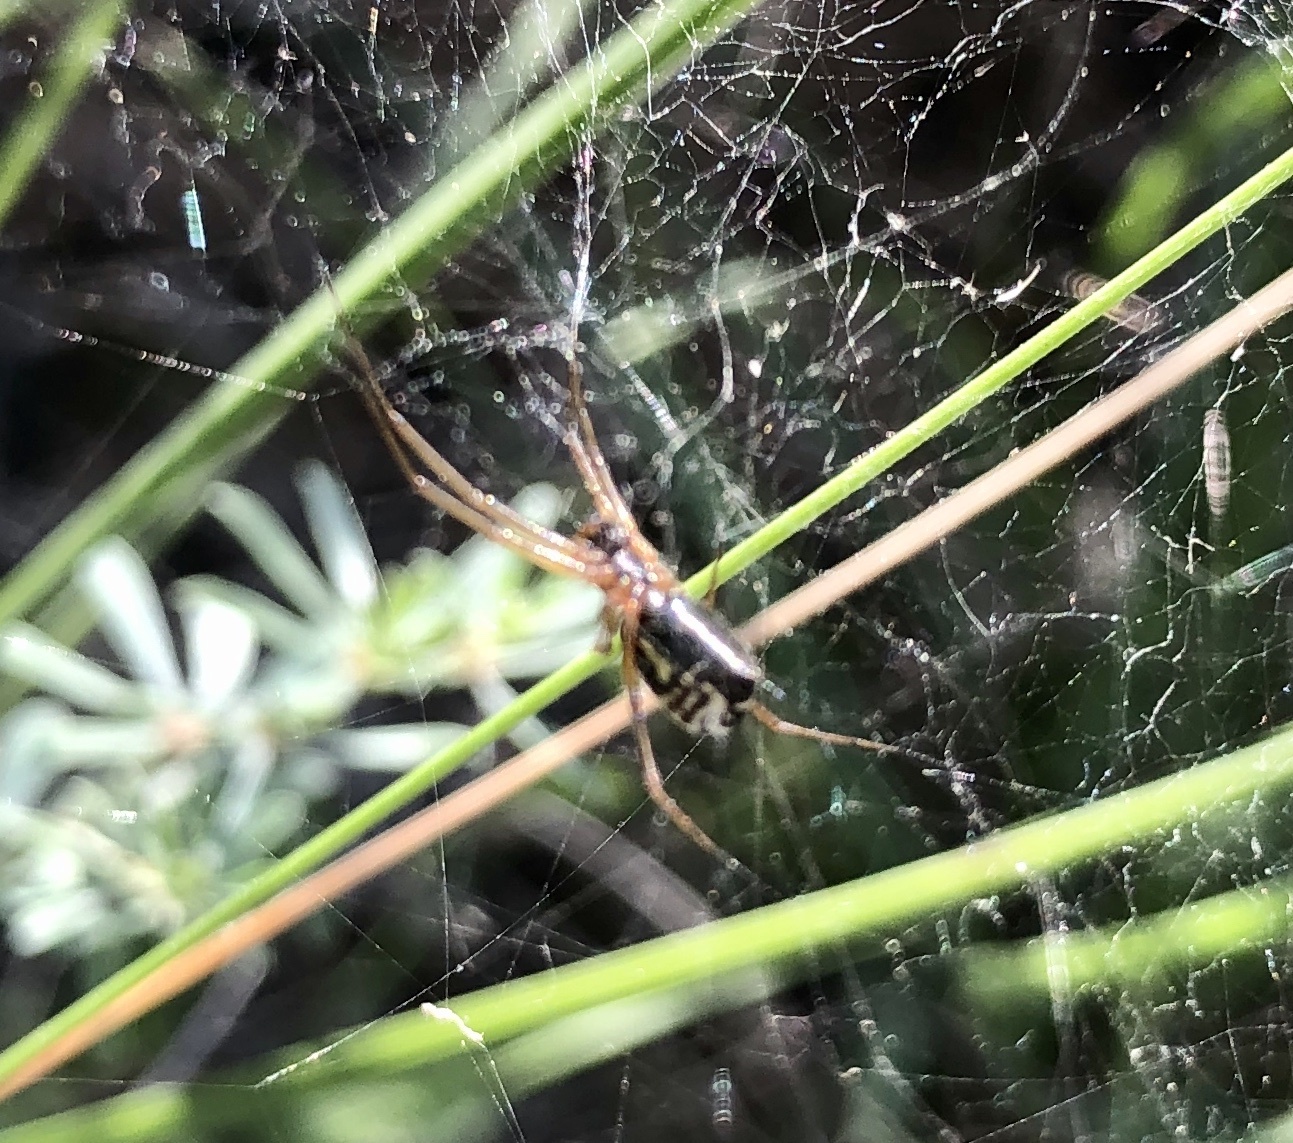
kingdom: Animalia
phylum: Arthropoda
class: Arachnida
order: Araneae
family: Linyphiidae
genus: Frontinellina
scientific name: Frontinellina frutetorum
